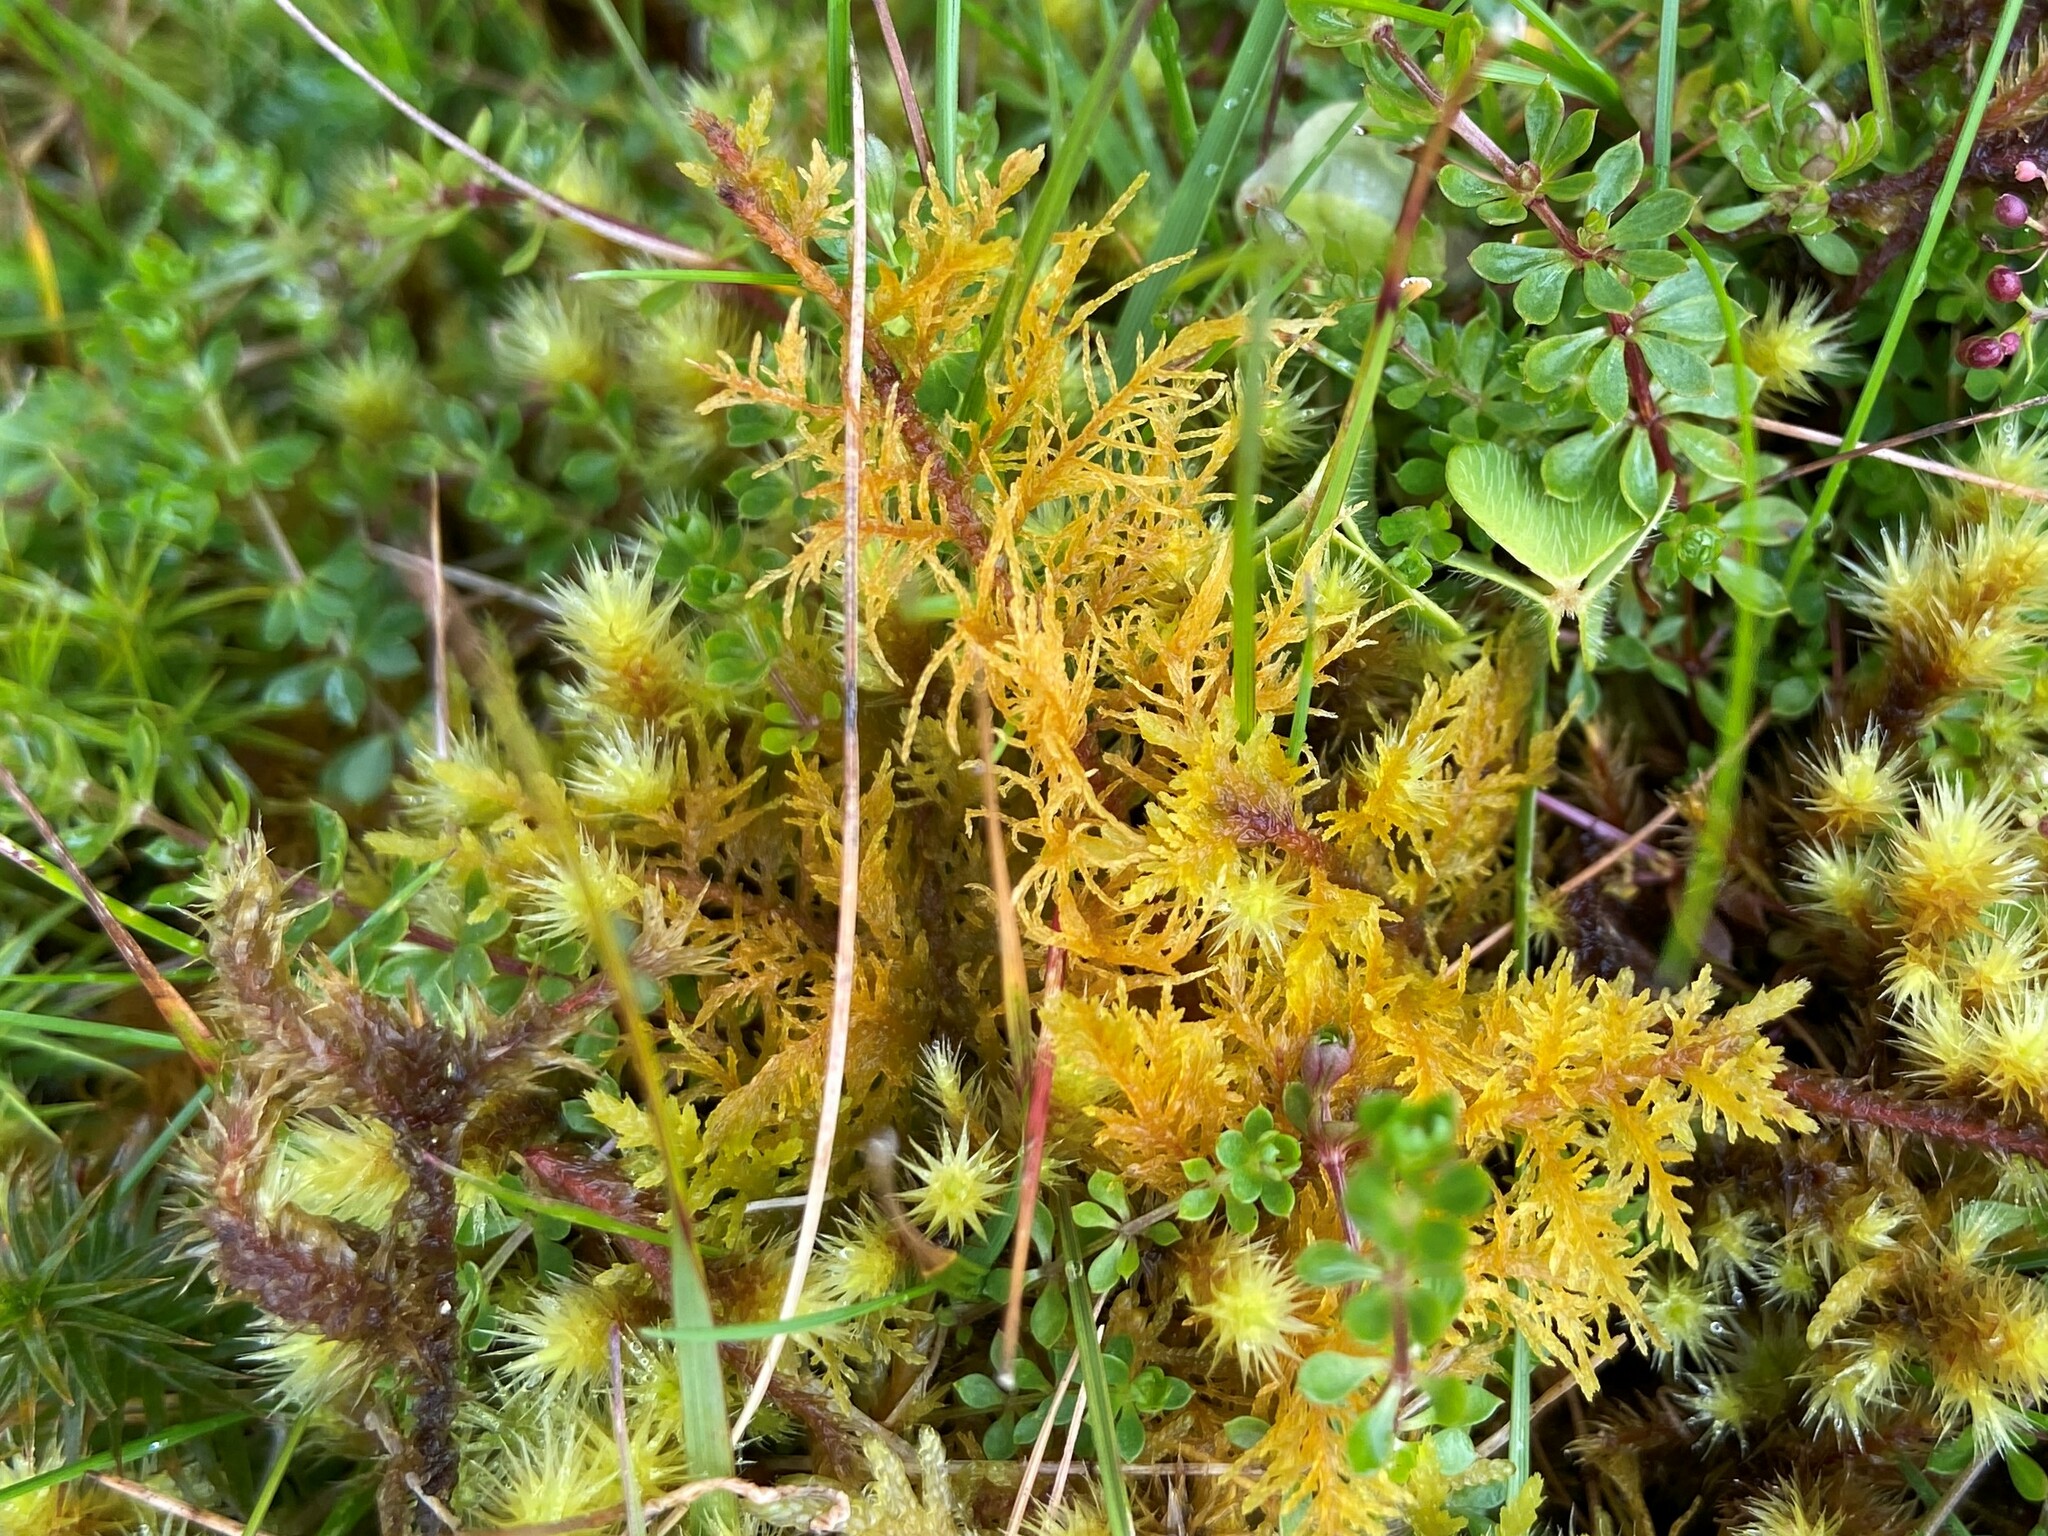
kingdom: Plantae
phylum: Bryophyta
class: Bryopsida
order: Hypnales
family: Thuidiaceae
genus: Thuidium
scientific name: Thuidium tamariscinum
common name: Common tamarisk-moss
